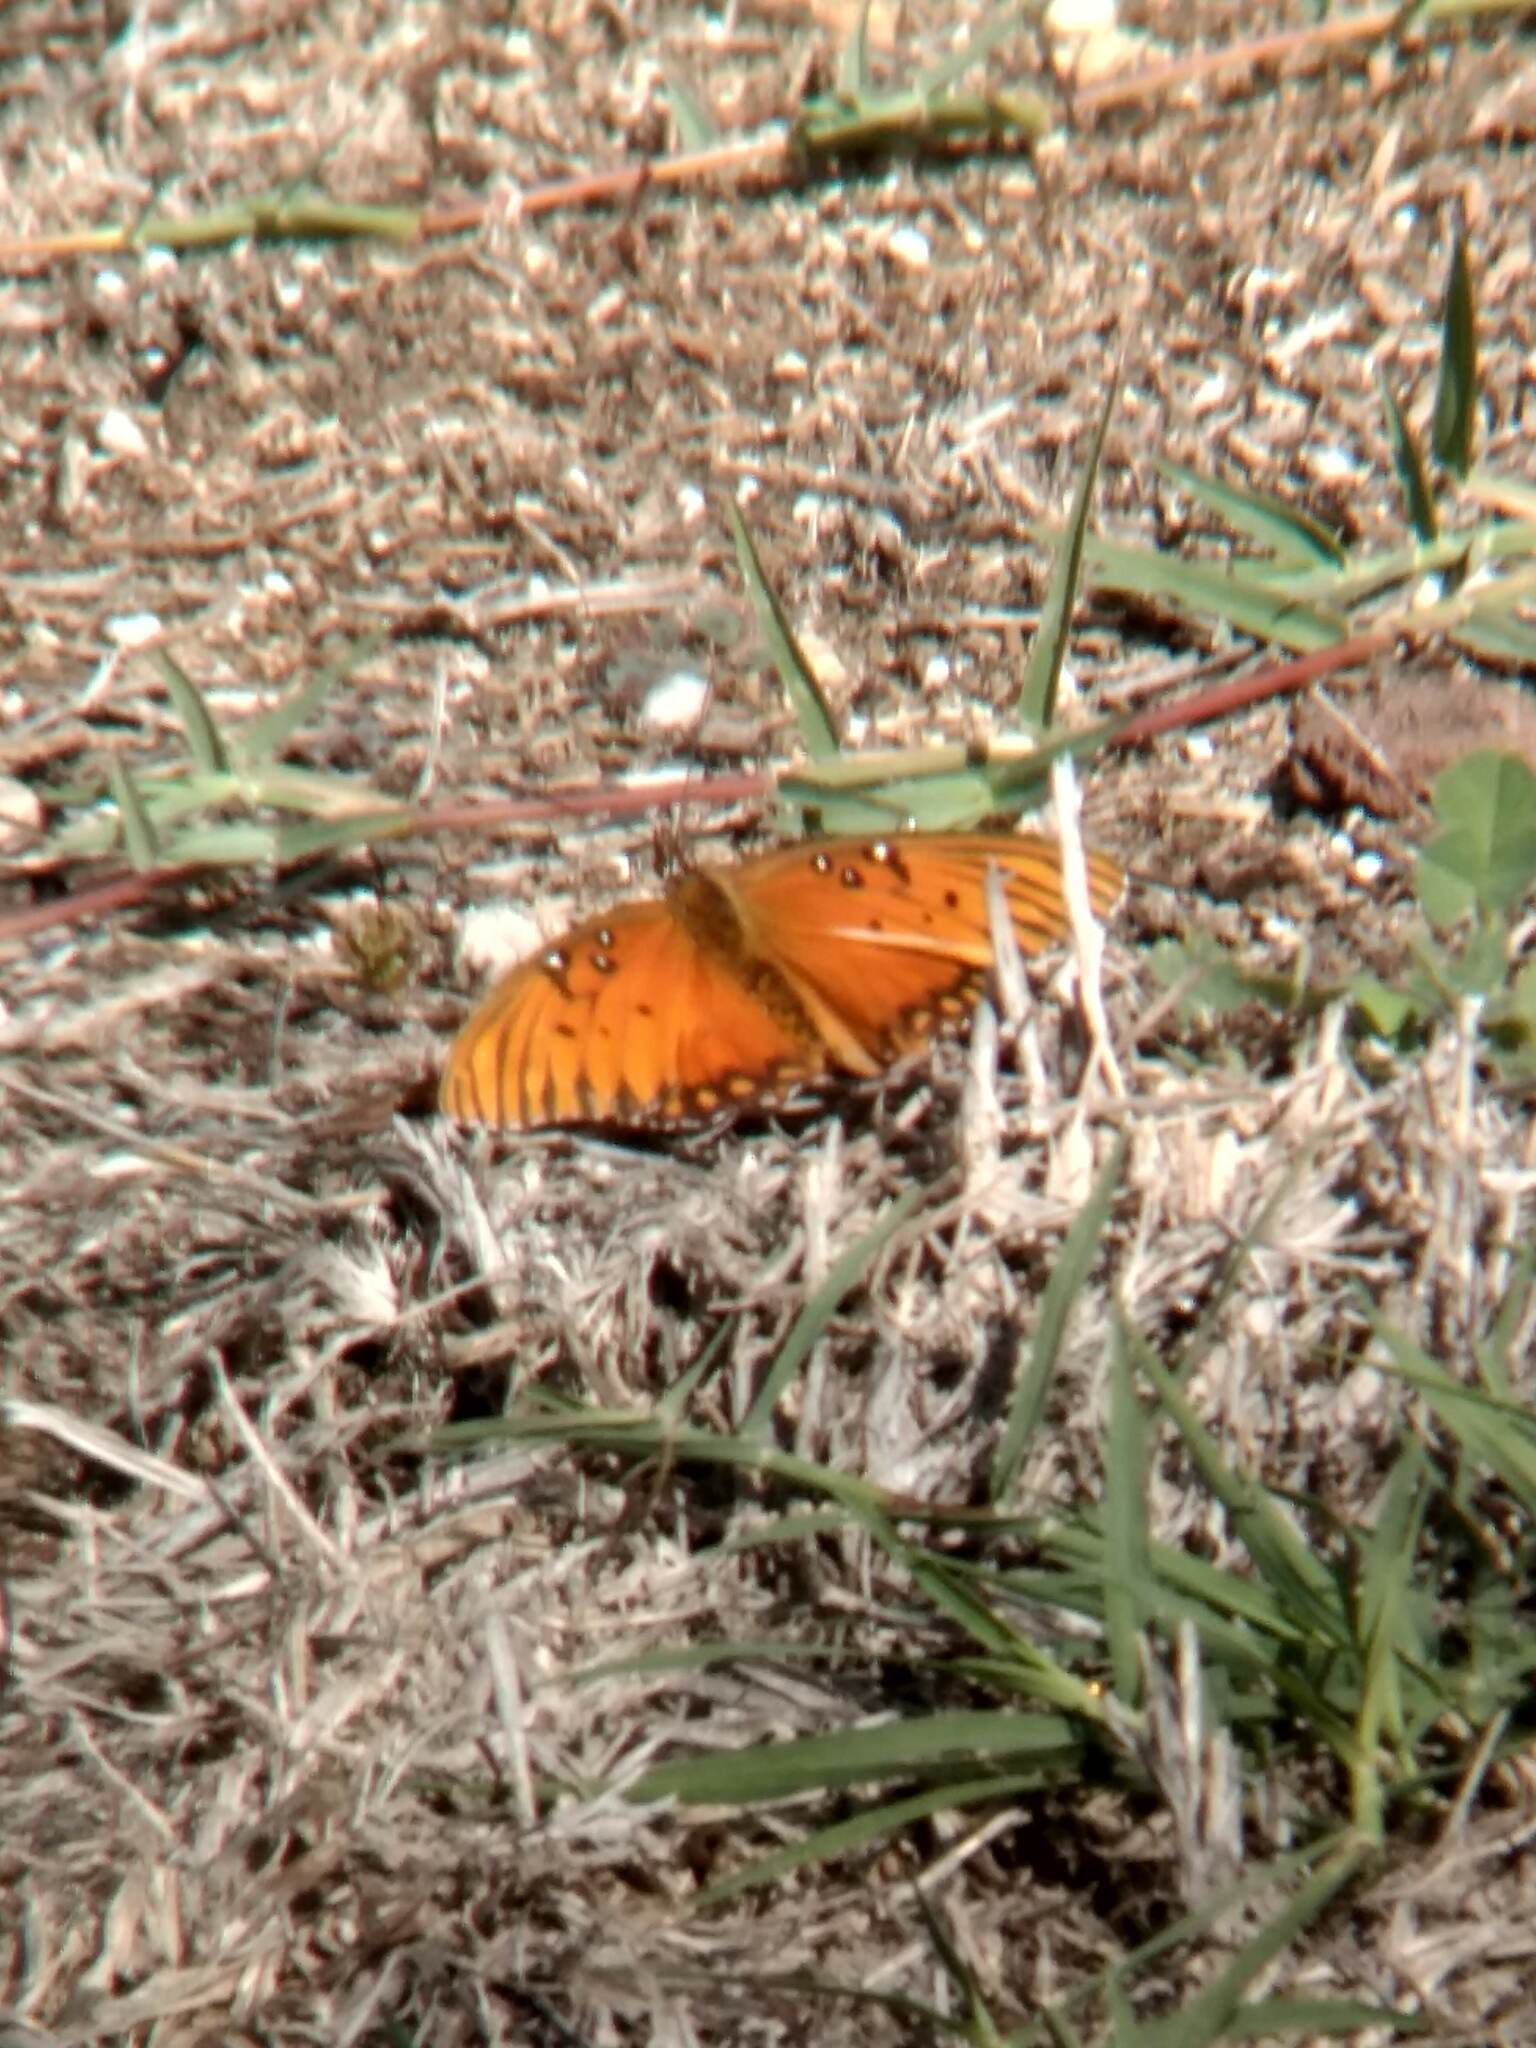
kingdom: Animalia
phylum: Arthropoda
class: Insecta
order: Lepidoptera
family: Nymphalidae
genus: Dione
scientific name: Dione vanillae
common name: Gulf fritillary
